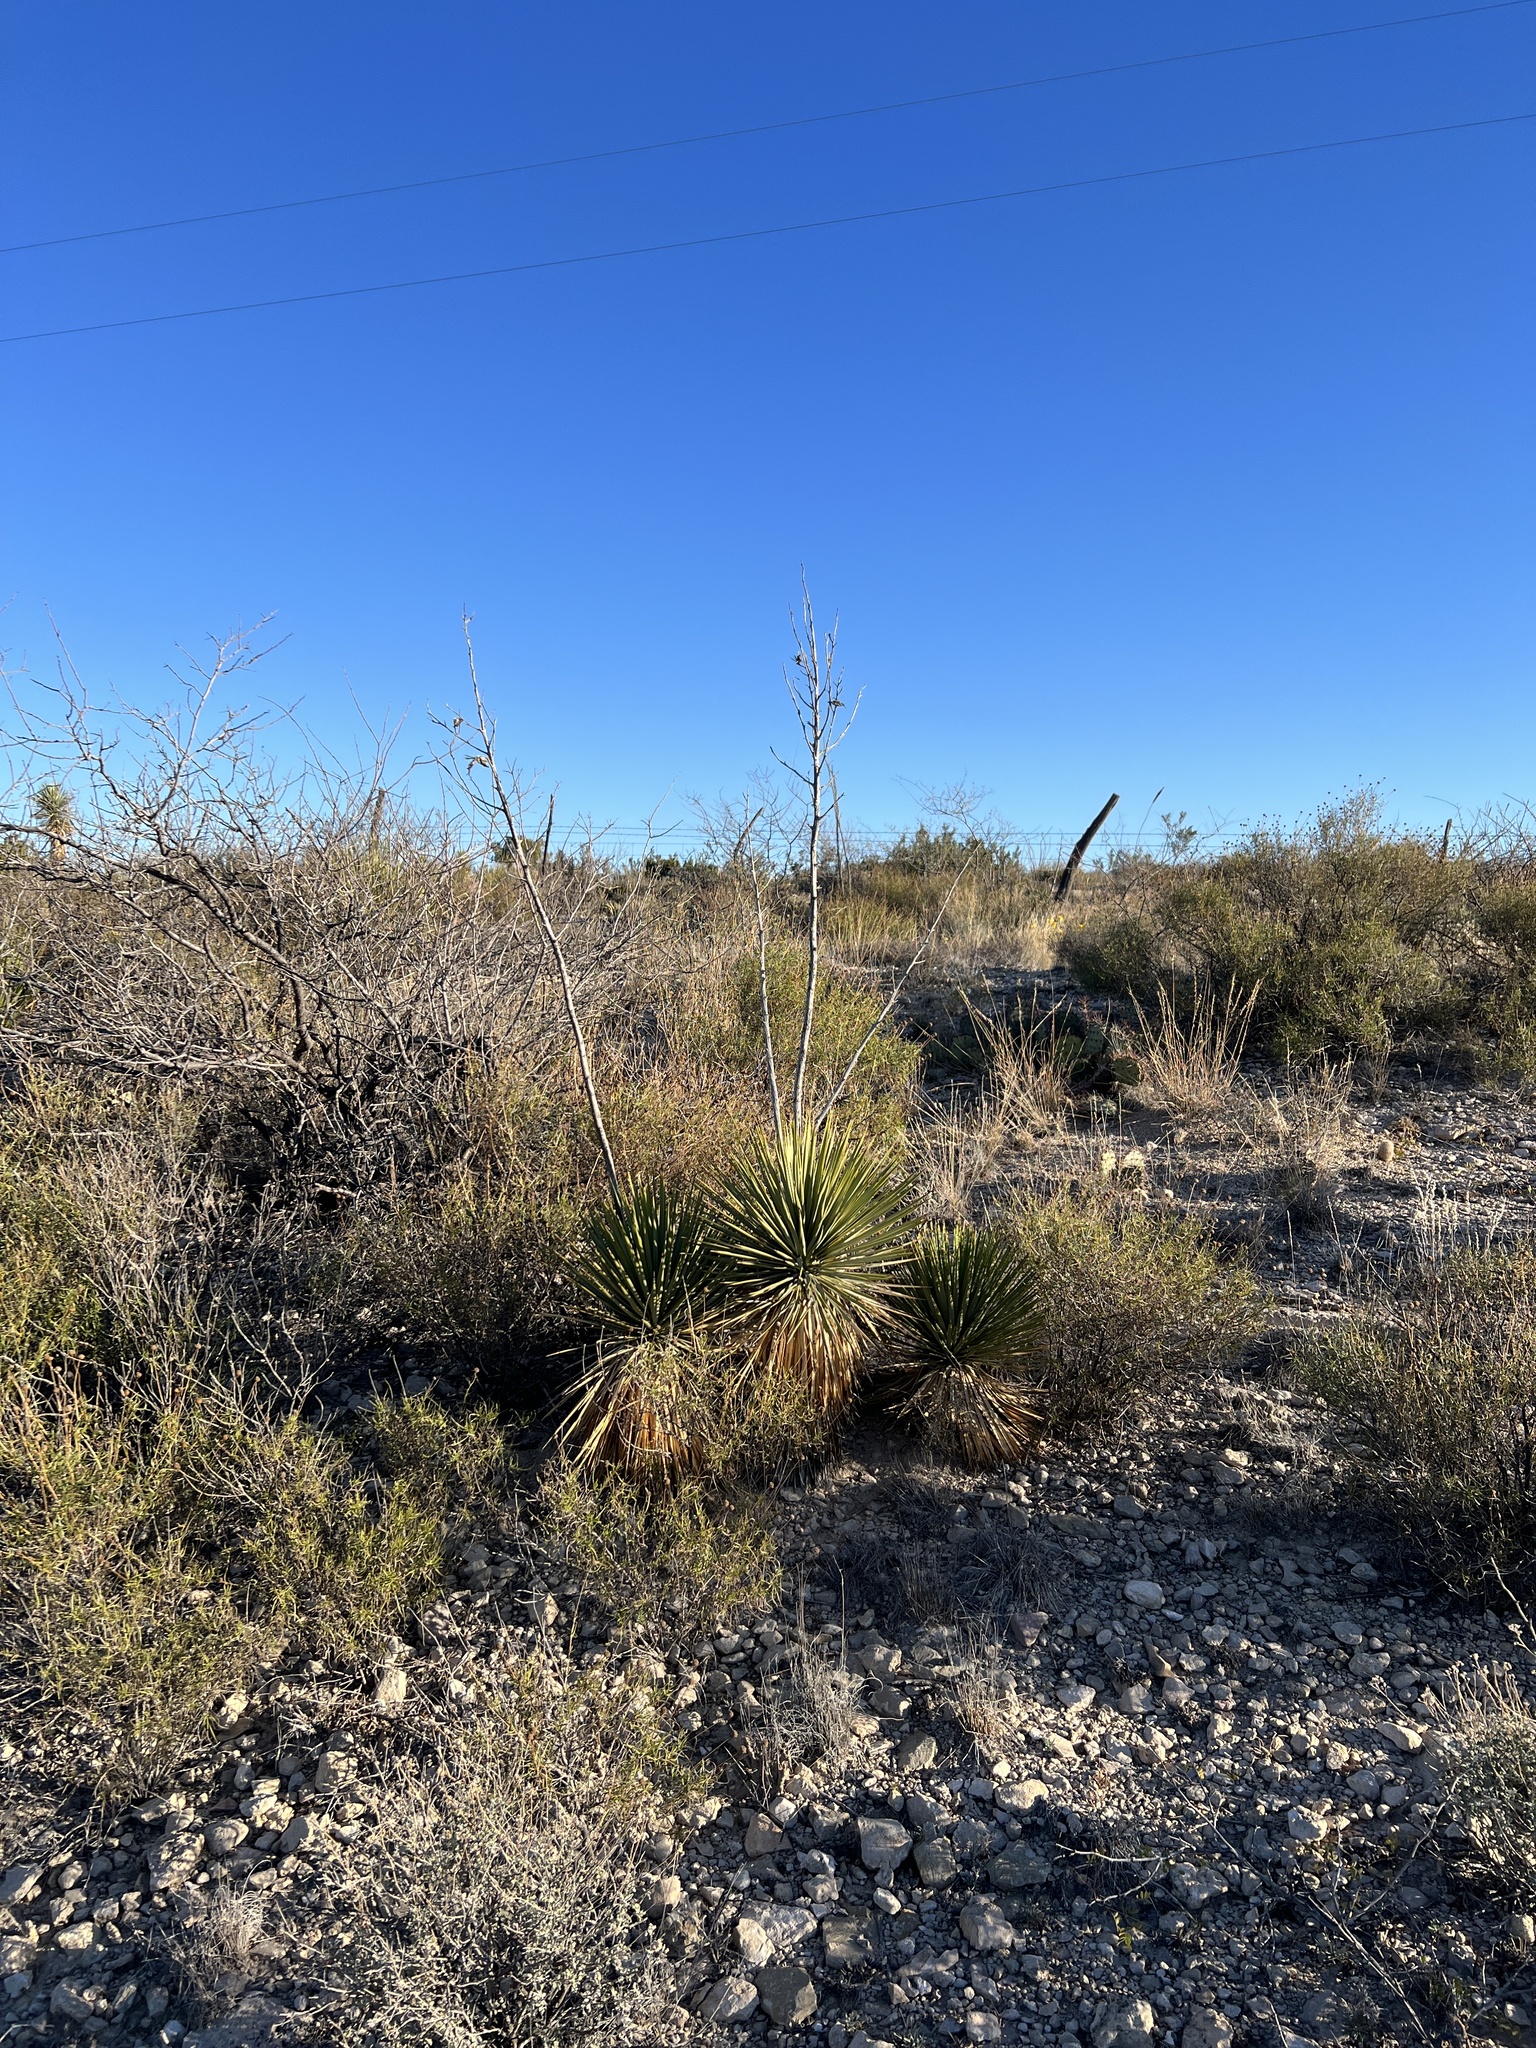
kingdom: Plantae
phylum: Tracheophyta
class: Liliopsida
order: Asparagales
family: Asparagaceae
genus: Yucca
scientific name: Yucca thompsoniana
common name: Trans-pecos yucca
